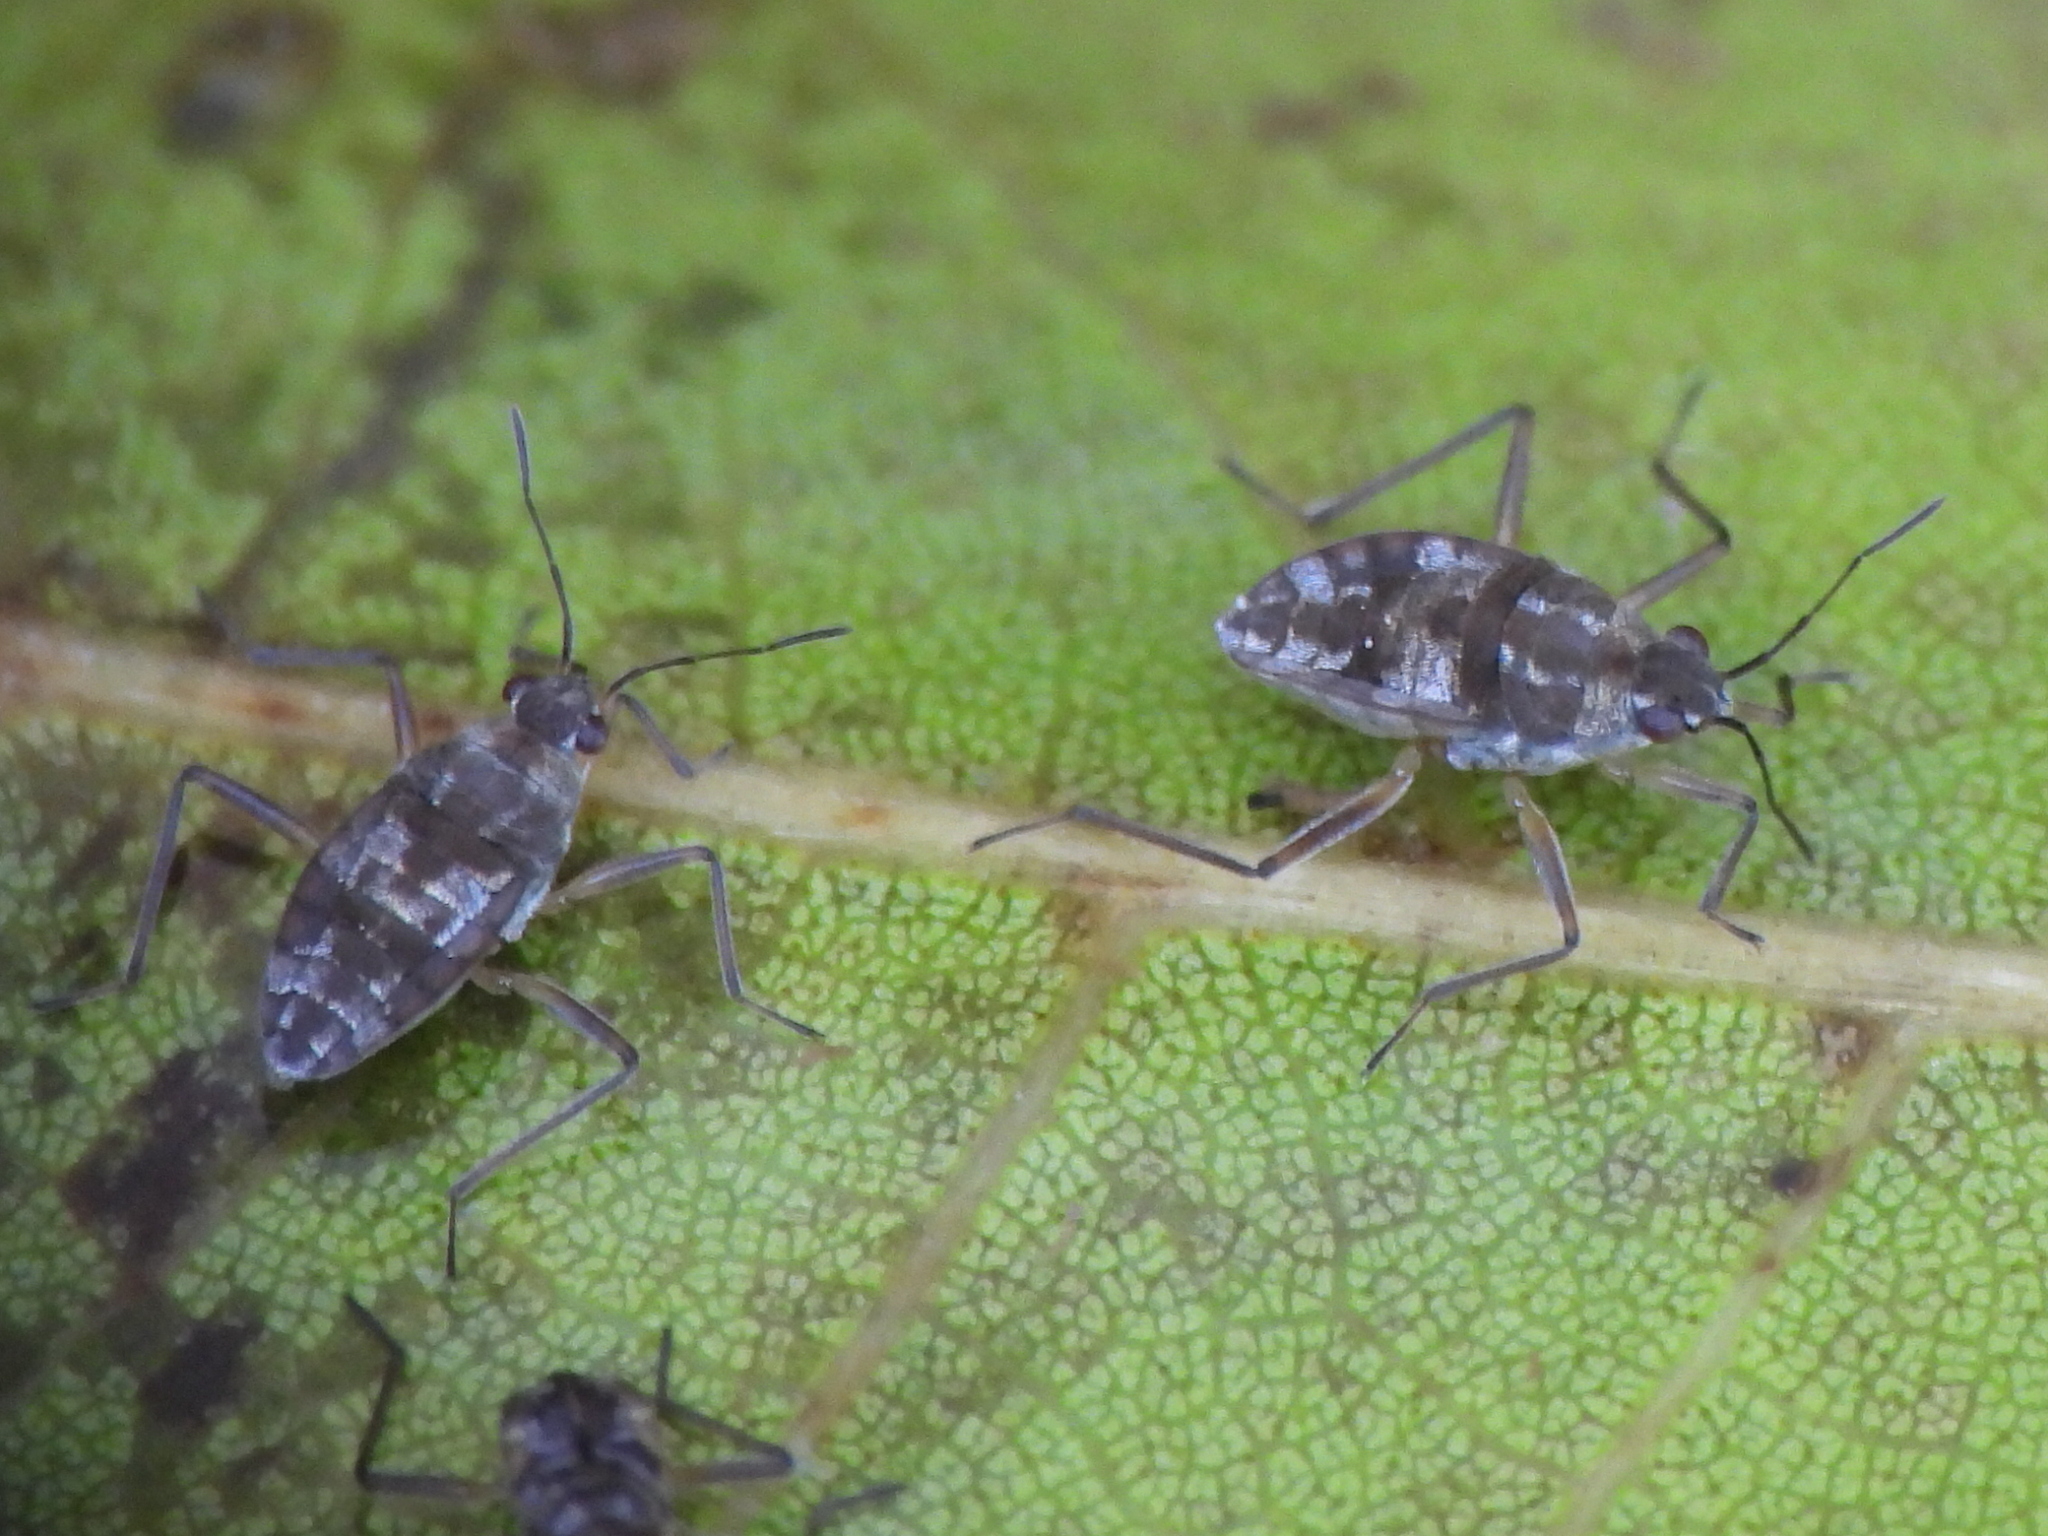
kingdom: Animalia
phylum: Arthropoda
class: Insecta
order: Hemiptera
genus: Kirkaldya
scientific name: Kirkaldya
